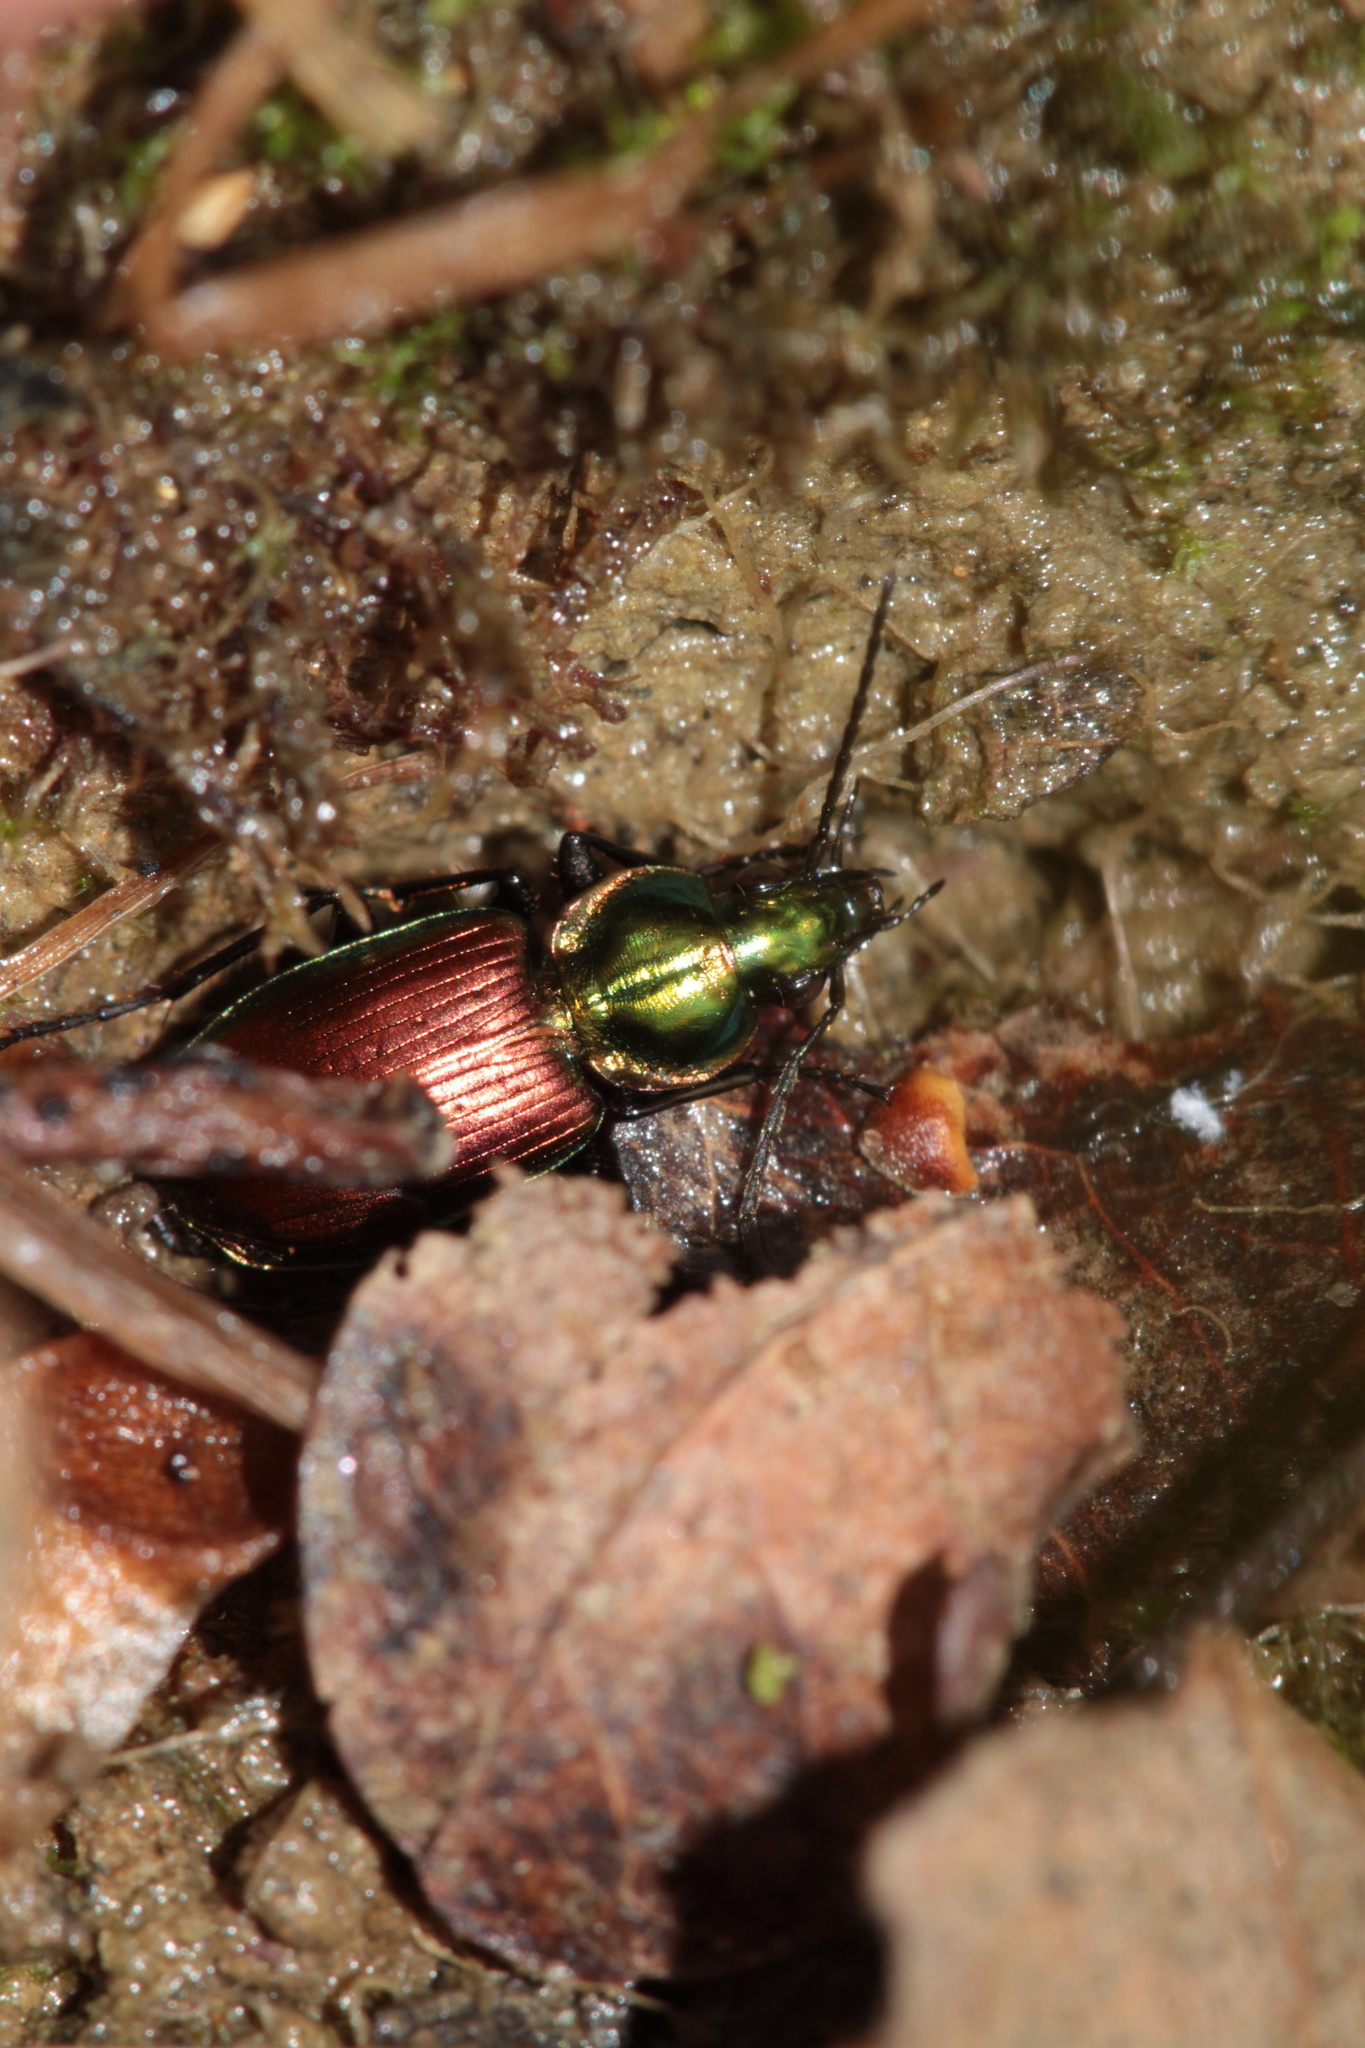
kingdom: Animalia
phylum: Arthropoda
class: Insecta
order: Coleoptera
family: Carabidae
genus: Agonum
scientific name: Agonum sexpunctatum
